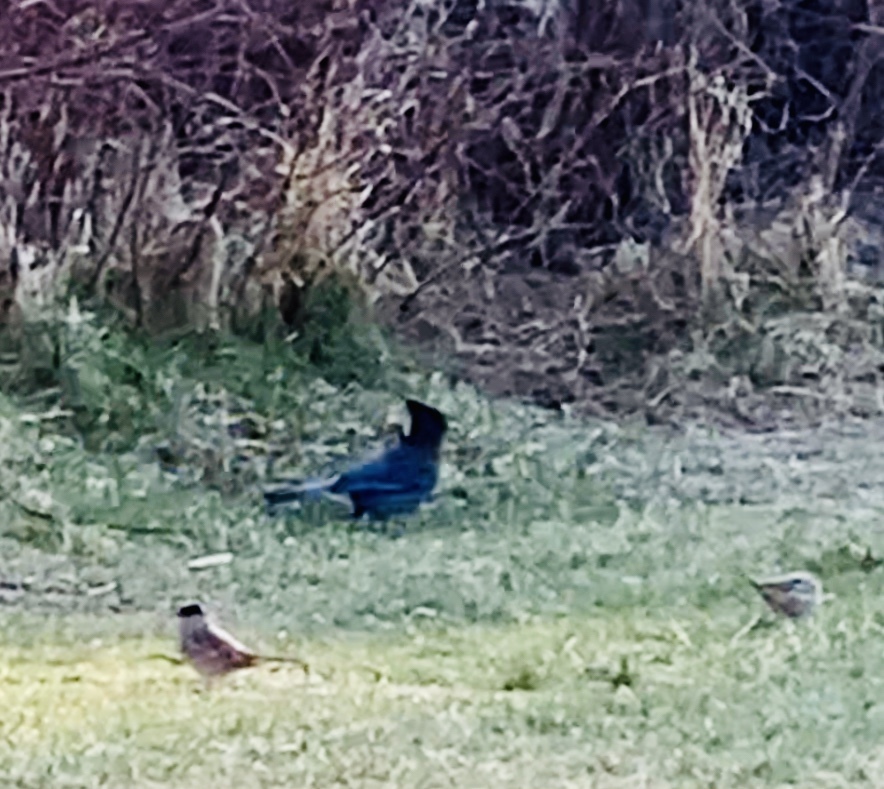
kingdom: Animalia
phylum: Chordata
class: Aves
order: Passeriformes
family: Corvidae
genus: Cyanocitta
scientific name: Cyanocitta stelleri
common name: Steller's jay
